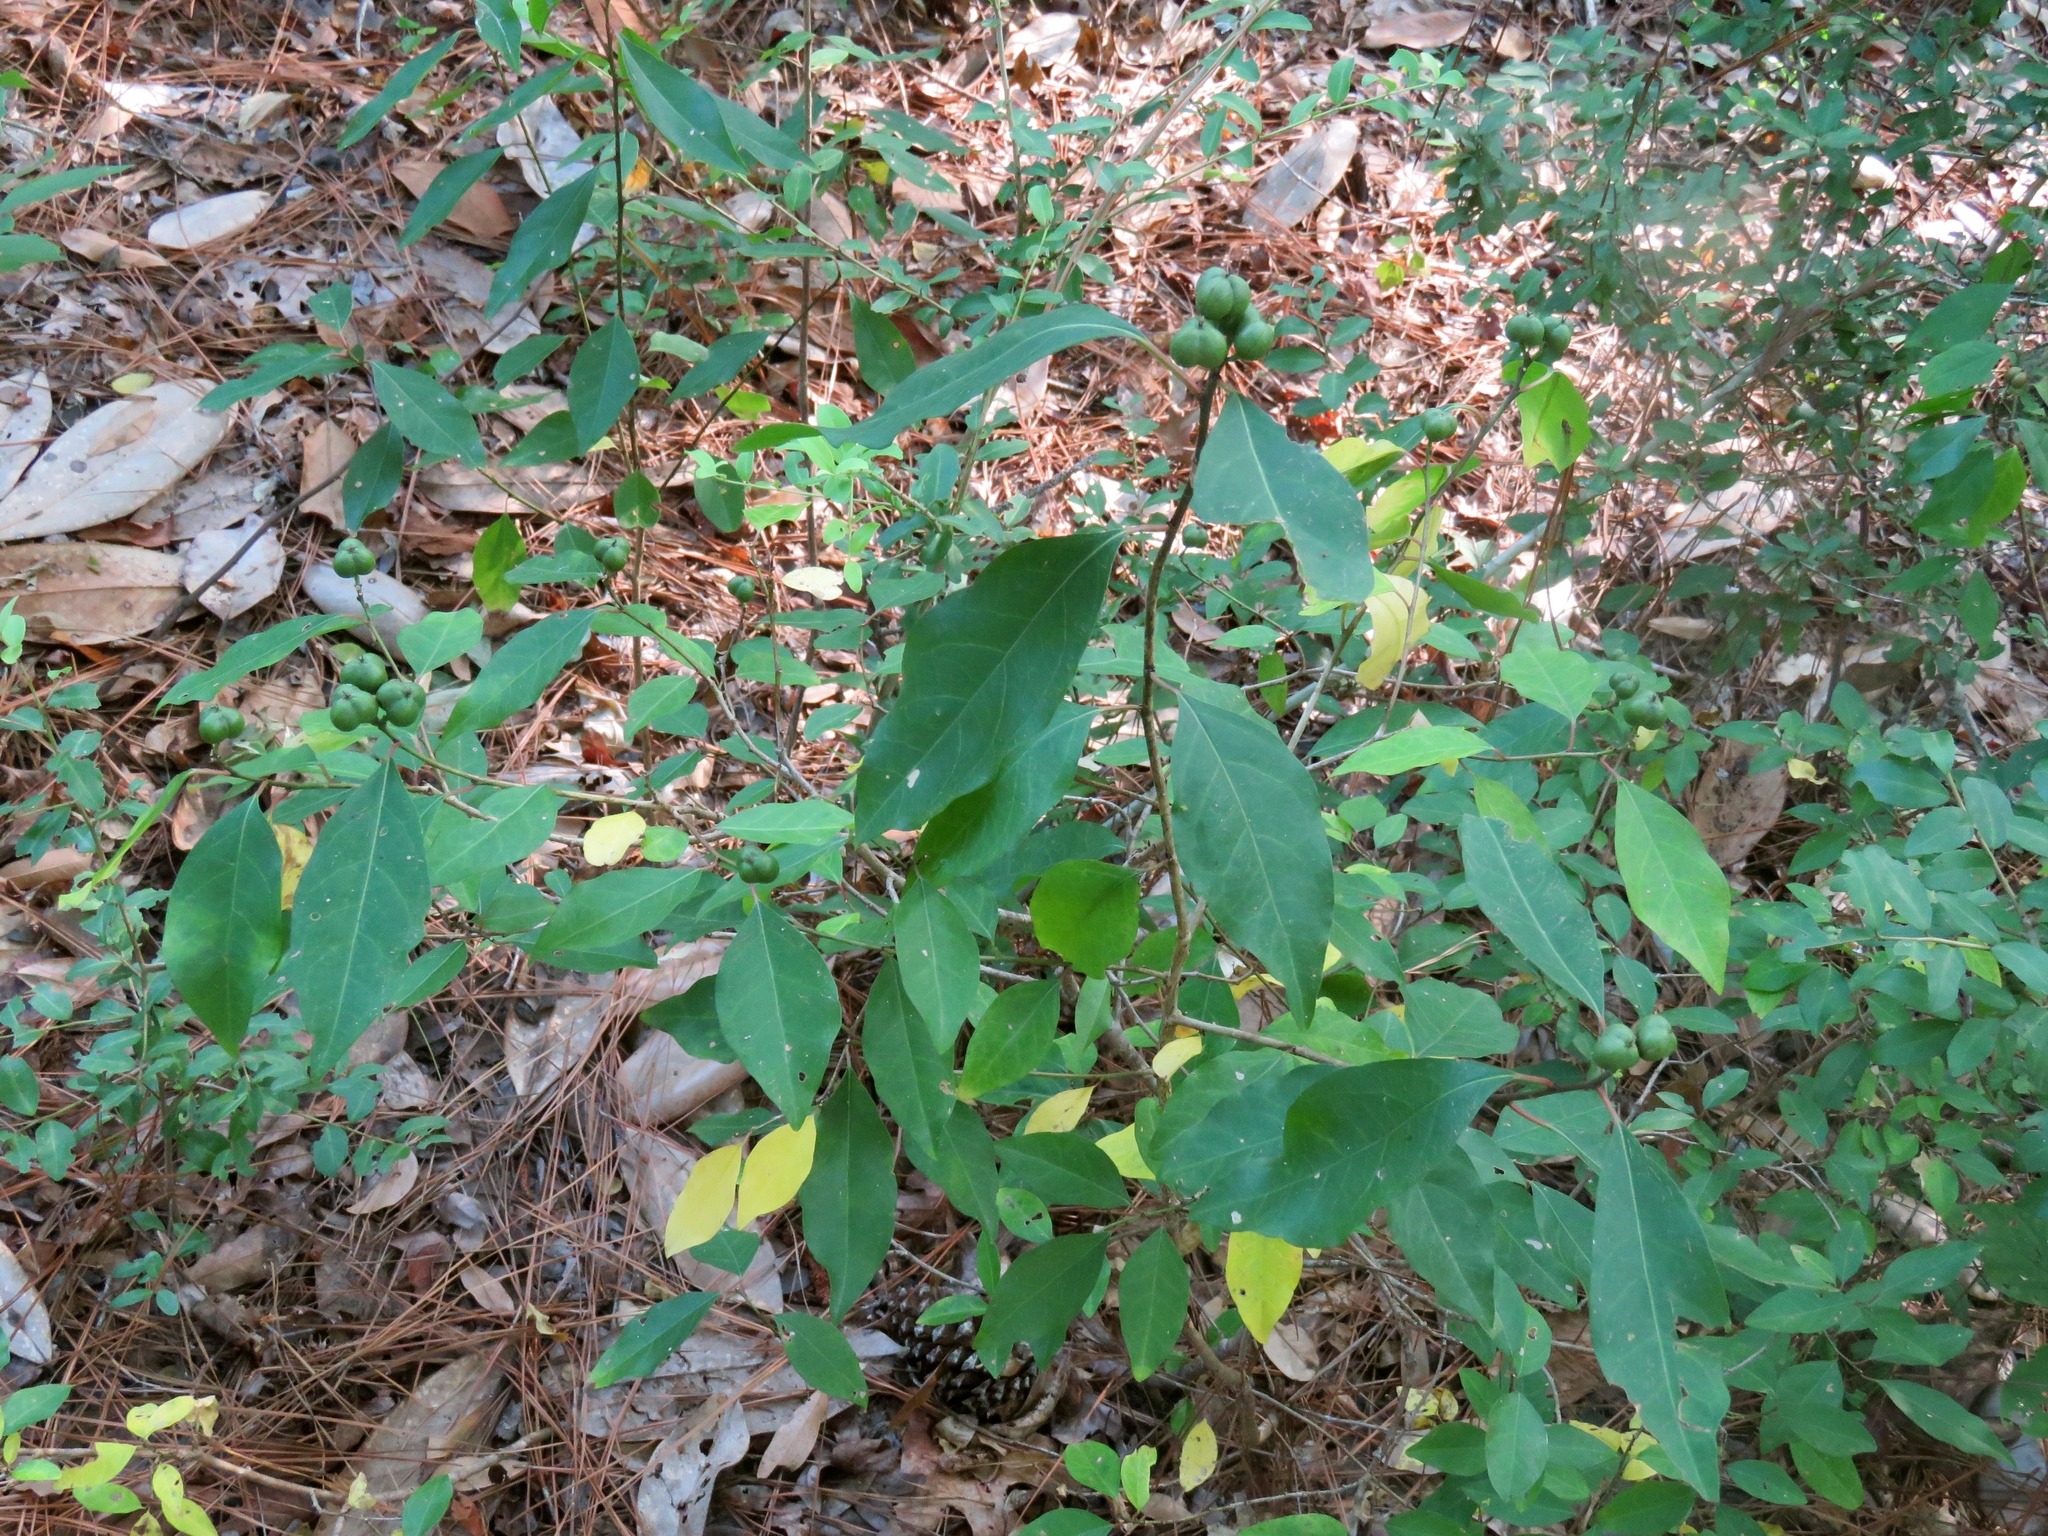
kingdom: Plantae
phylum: Tracheophyta
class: Magnoliopsida
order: Malpighiales
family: Euphorbiaceae
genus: Ditrysinia
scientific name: Ditrysinia fruticosa
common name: Gulf sebastian-bush
